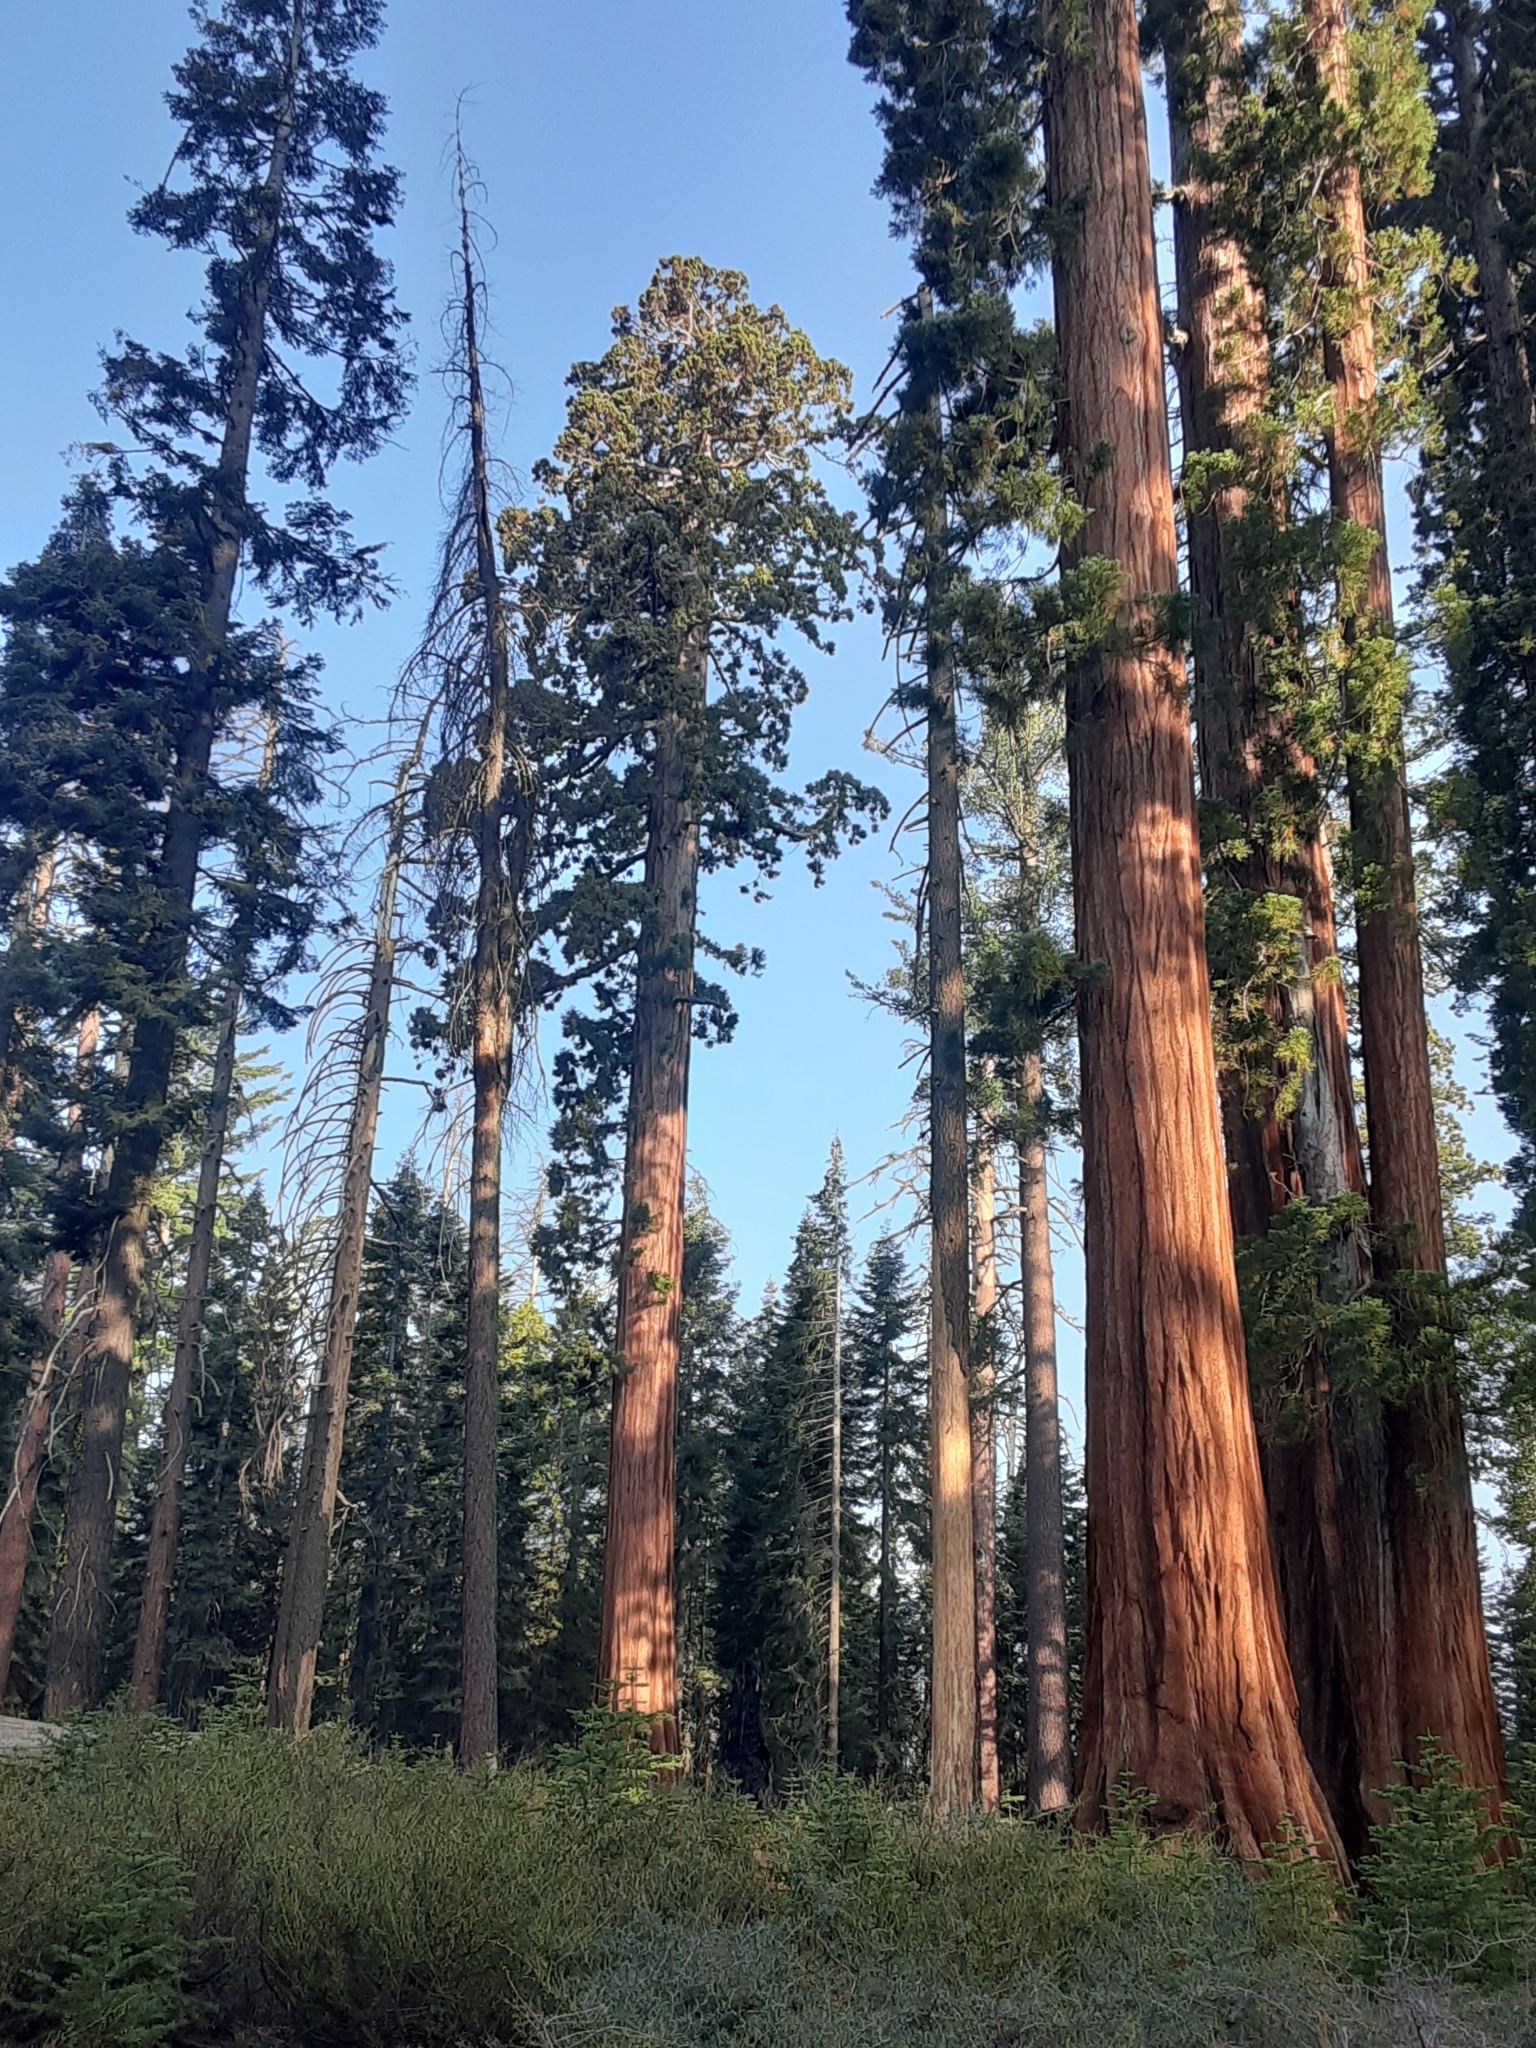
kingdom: Plantae
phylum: Tracheophyta
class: Pinopsida
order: Pinales
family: Cupressaceae
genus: Sequoiadendron
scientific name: Sequoiadendron giganteum
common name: Wellingtonia
